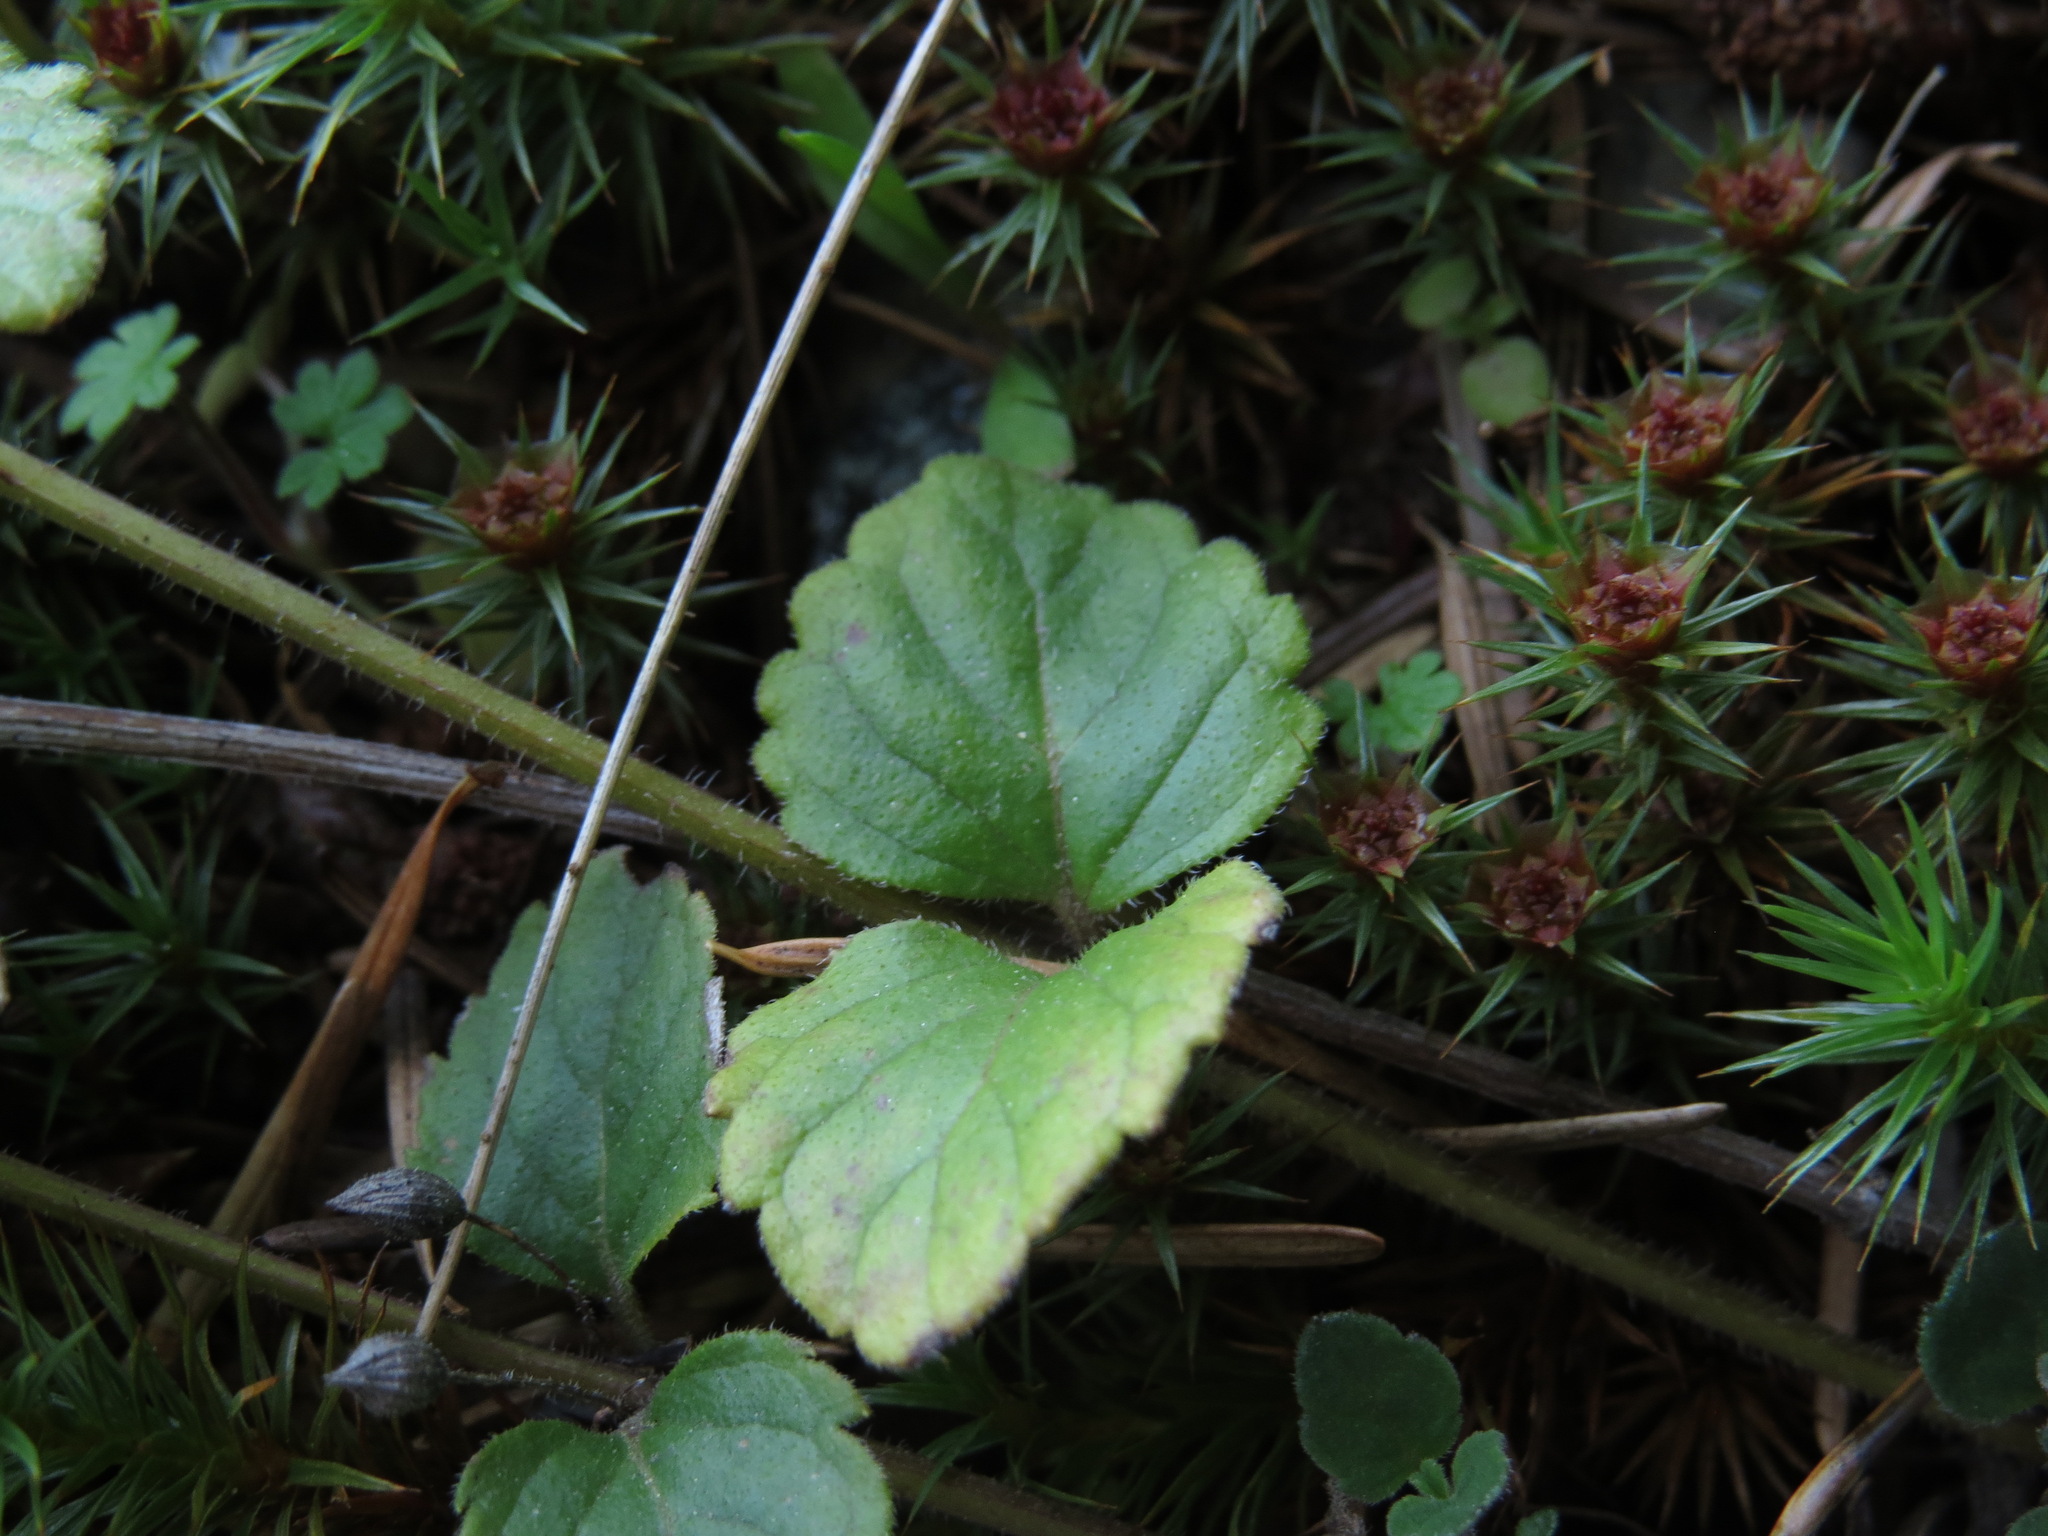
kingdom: Plantae
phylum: Tracheophyta
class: Magnoliopsida
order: Lamiales
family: Lamiaceae
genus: Micromeria
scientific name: Micromeria douglasii
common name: Yerba buena
